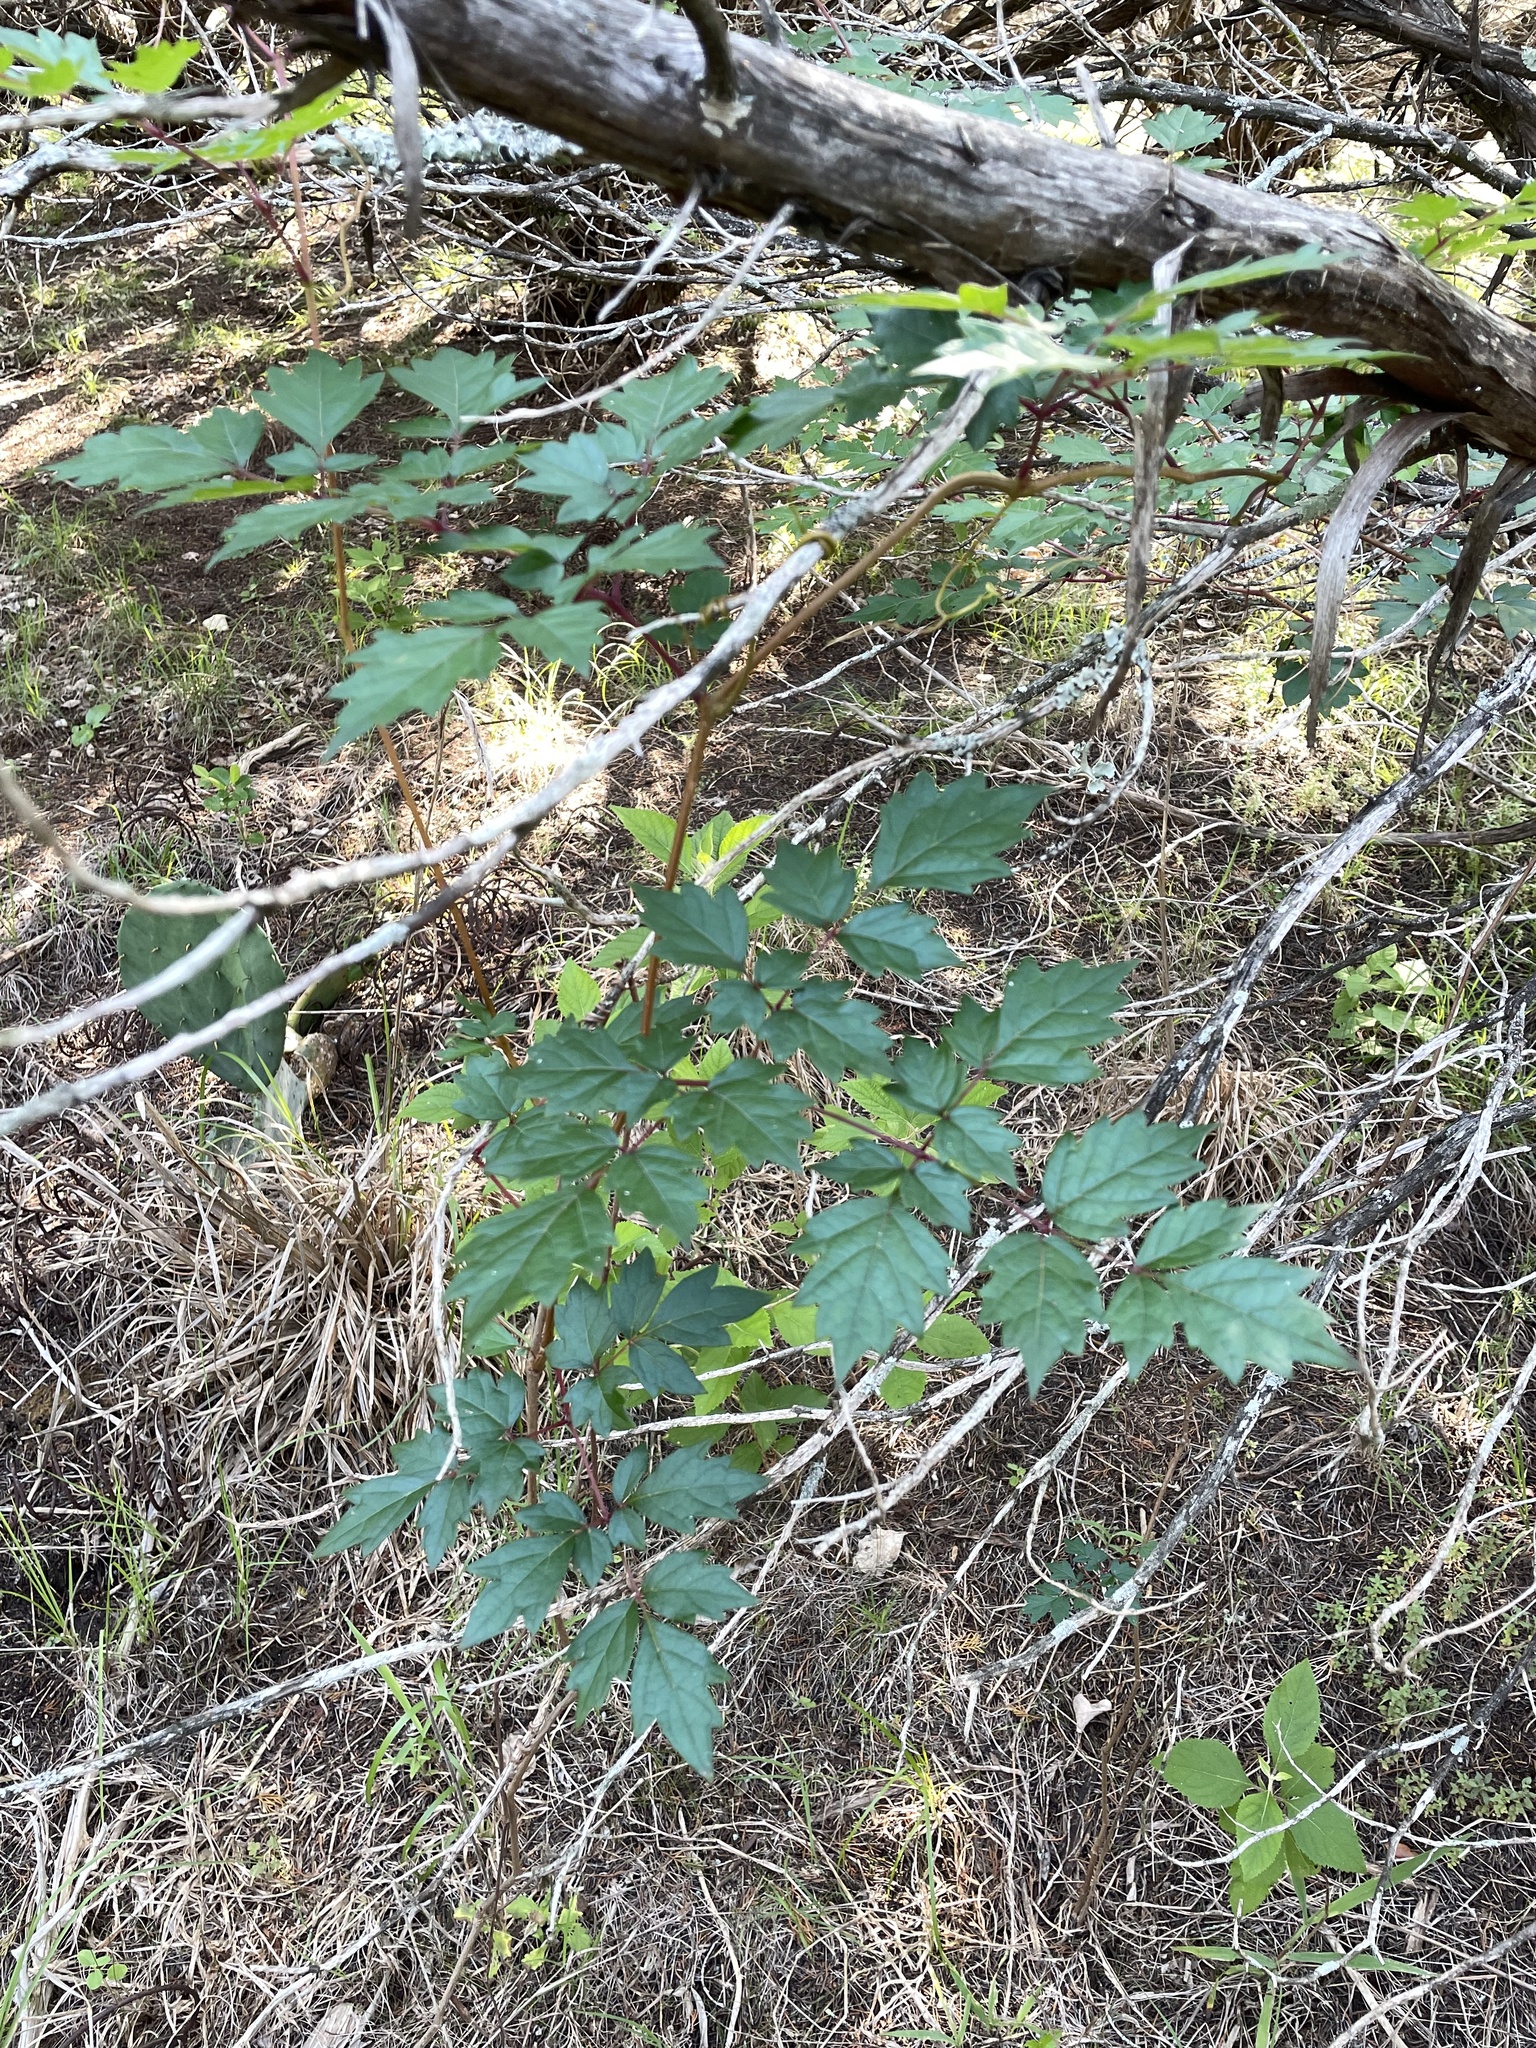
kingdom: Plantae
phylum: Tracheophyta
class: Magnoliopsida
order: Vitales
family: Vitaceae
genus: Nekemias
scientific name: Nekemias arborea
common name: Peppervine
